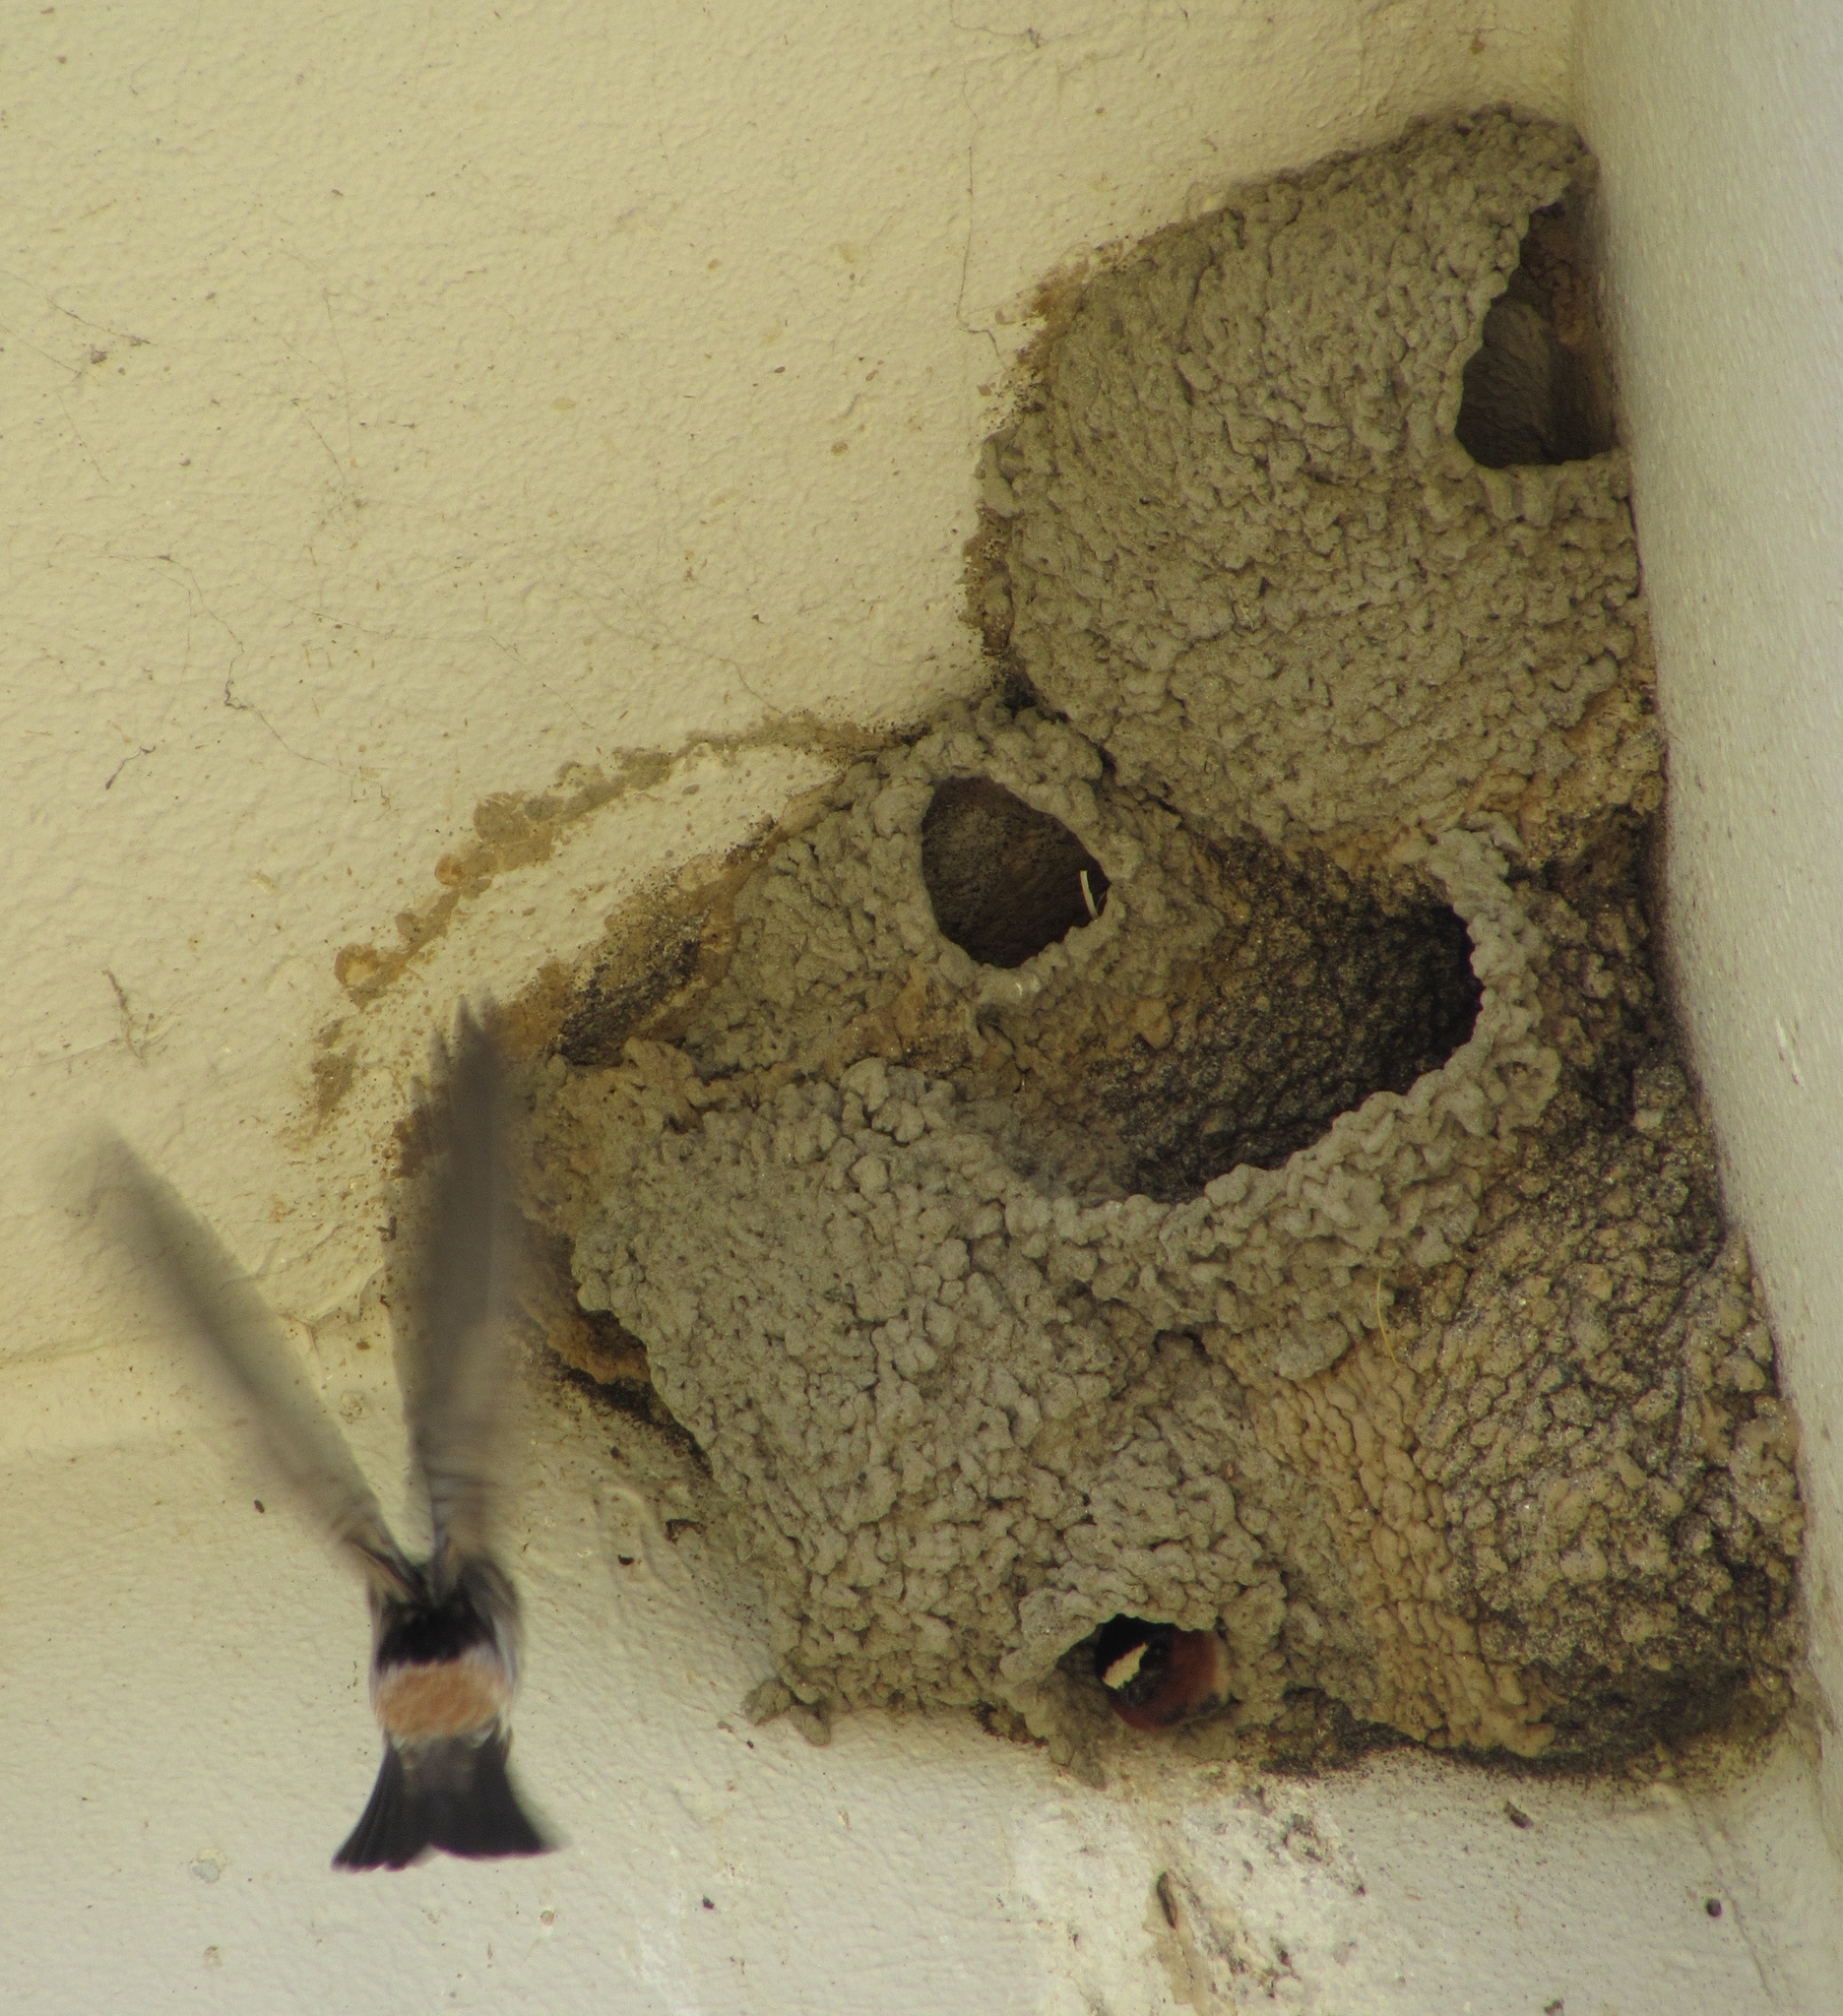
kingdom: Animalia
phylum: Chordata
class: Aves
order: Passeriformes
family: Hirundinidae
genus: Petrochelidon
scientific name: Petrochelidon pyrrhonota
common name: American cliff swallow
